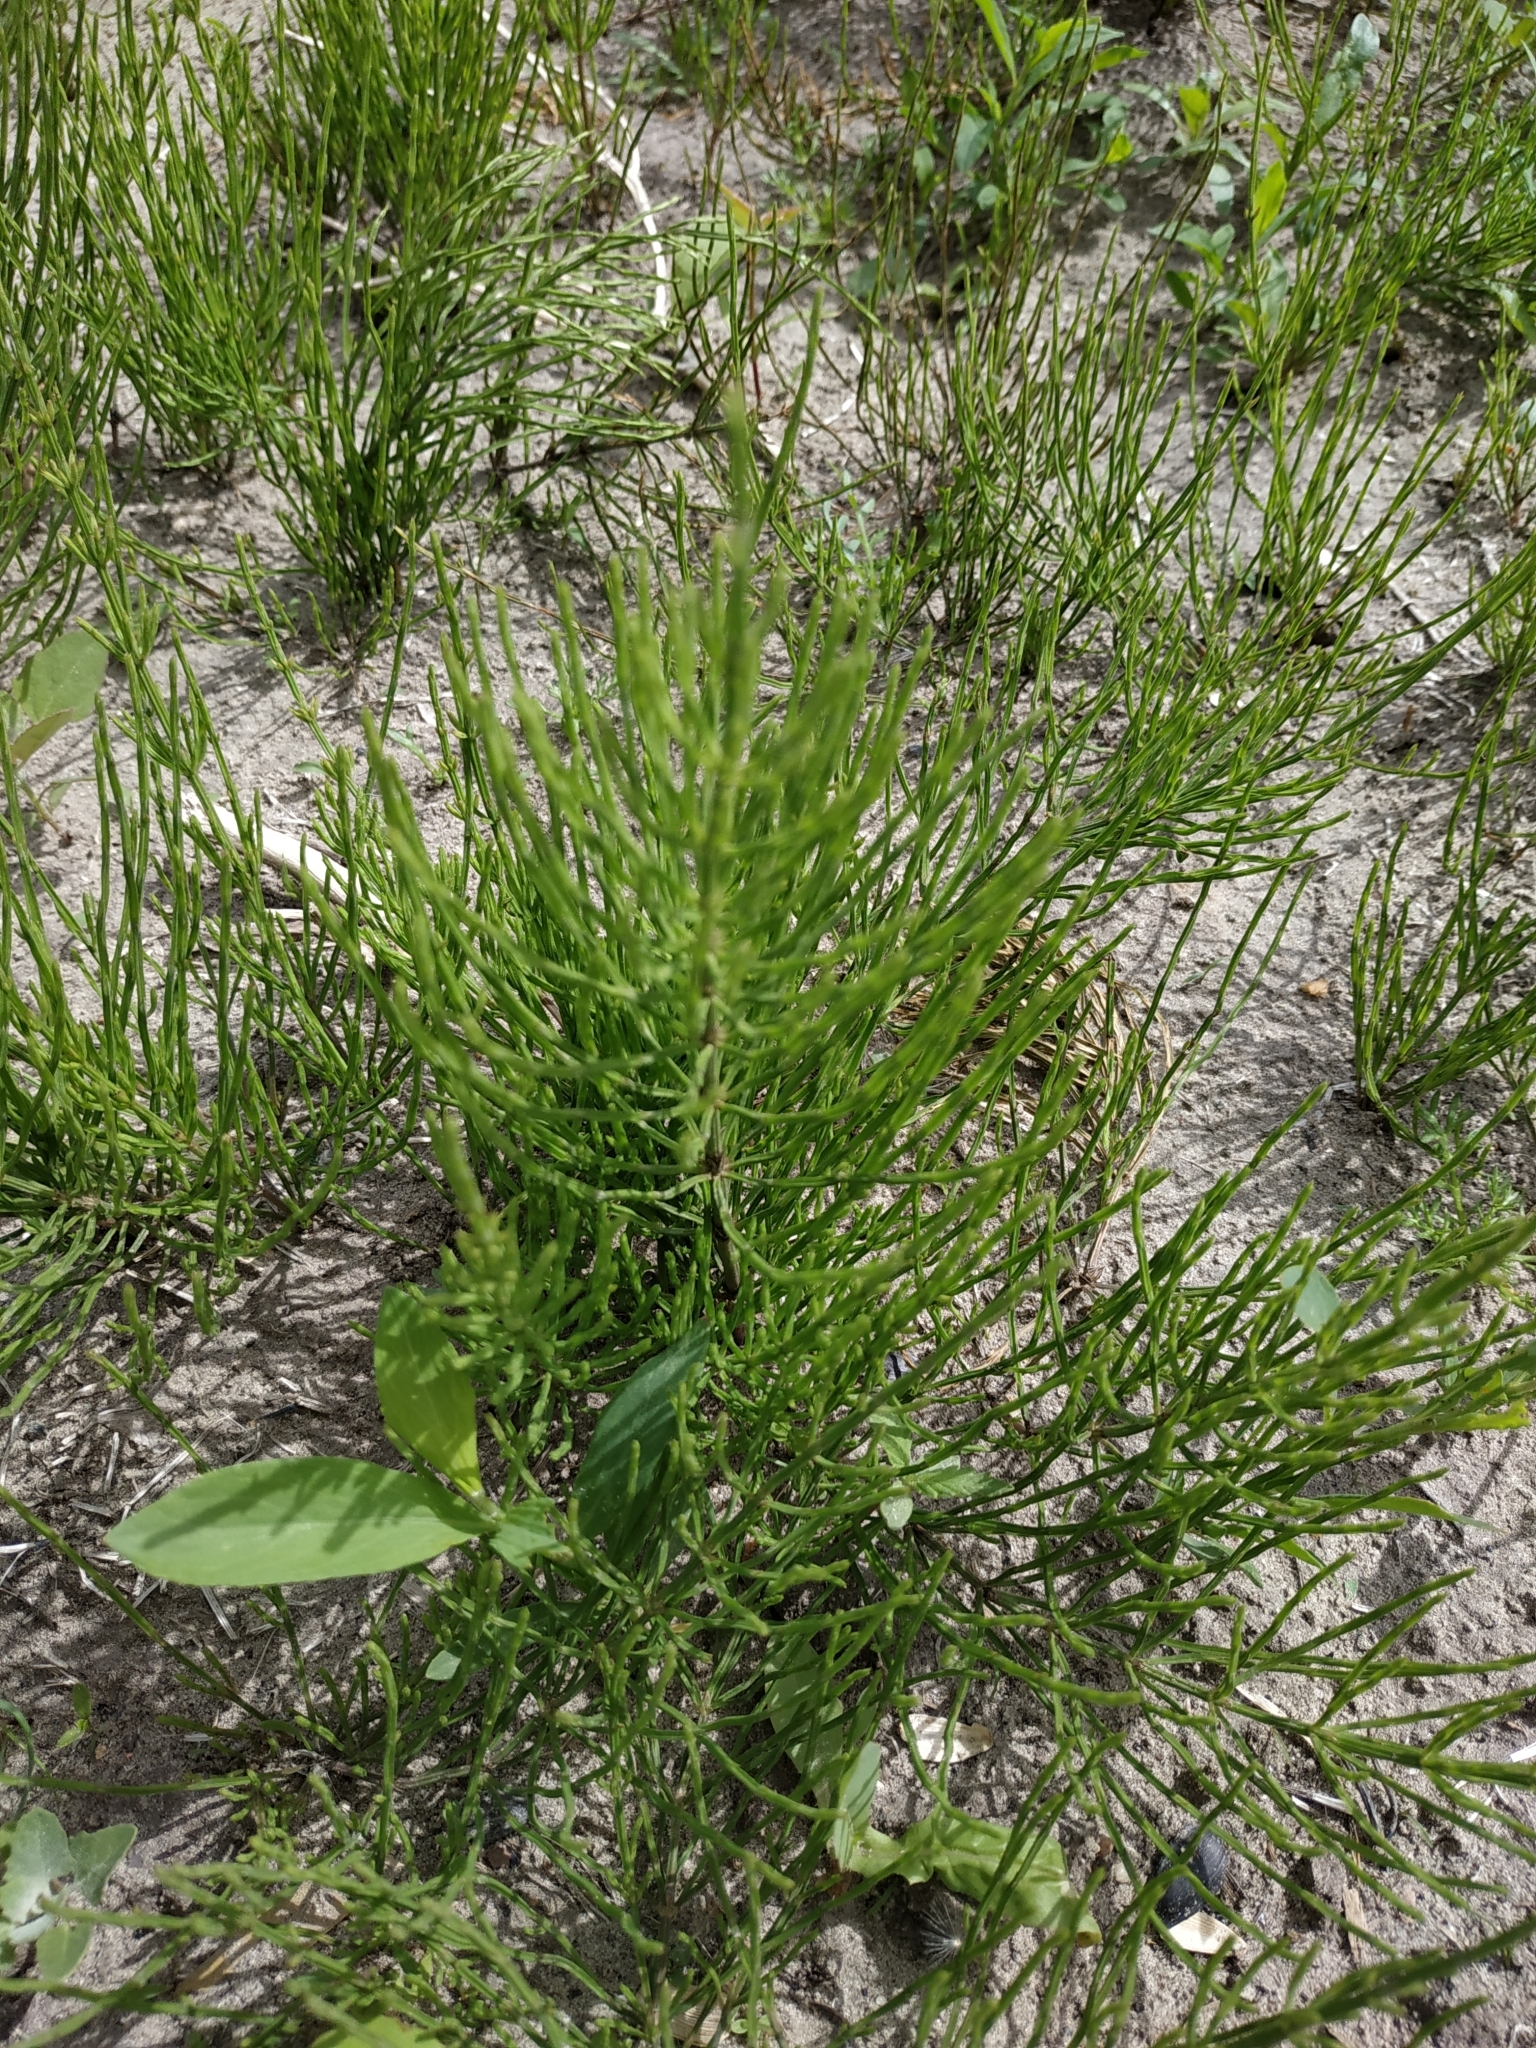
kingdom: Plantae
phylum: Tracheophyta
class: Polypodiopsida
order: Equisetales
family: Equisetaceae
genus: Equisetum
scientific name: Equisetum arvense
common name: Field horsetail
